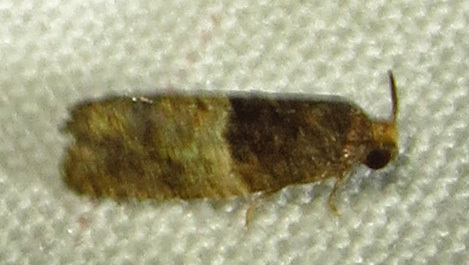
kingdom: Animalia
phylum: Arthropoda
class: Insecta
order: Lepidoptera
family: Tortricidae
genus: Larisa
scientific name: Larisa subsolana
